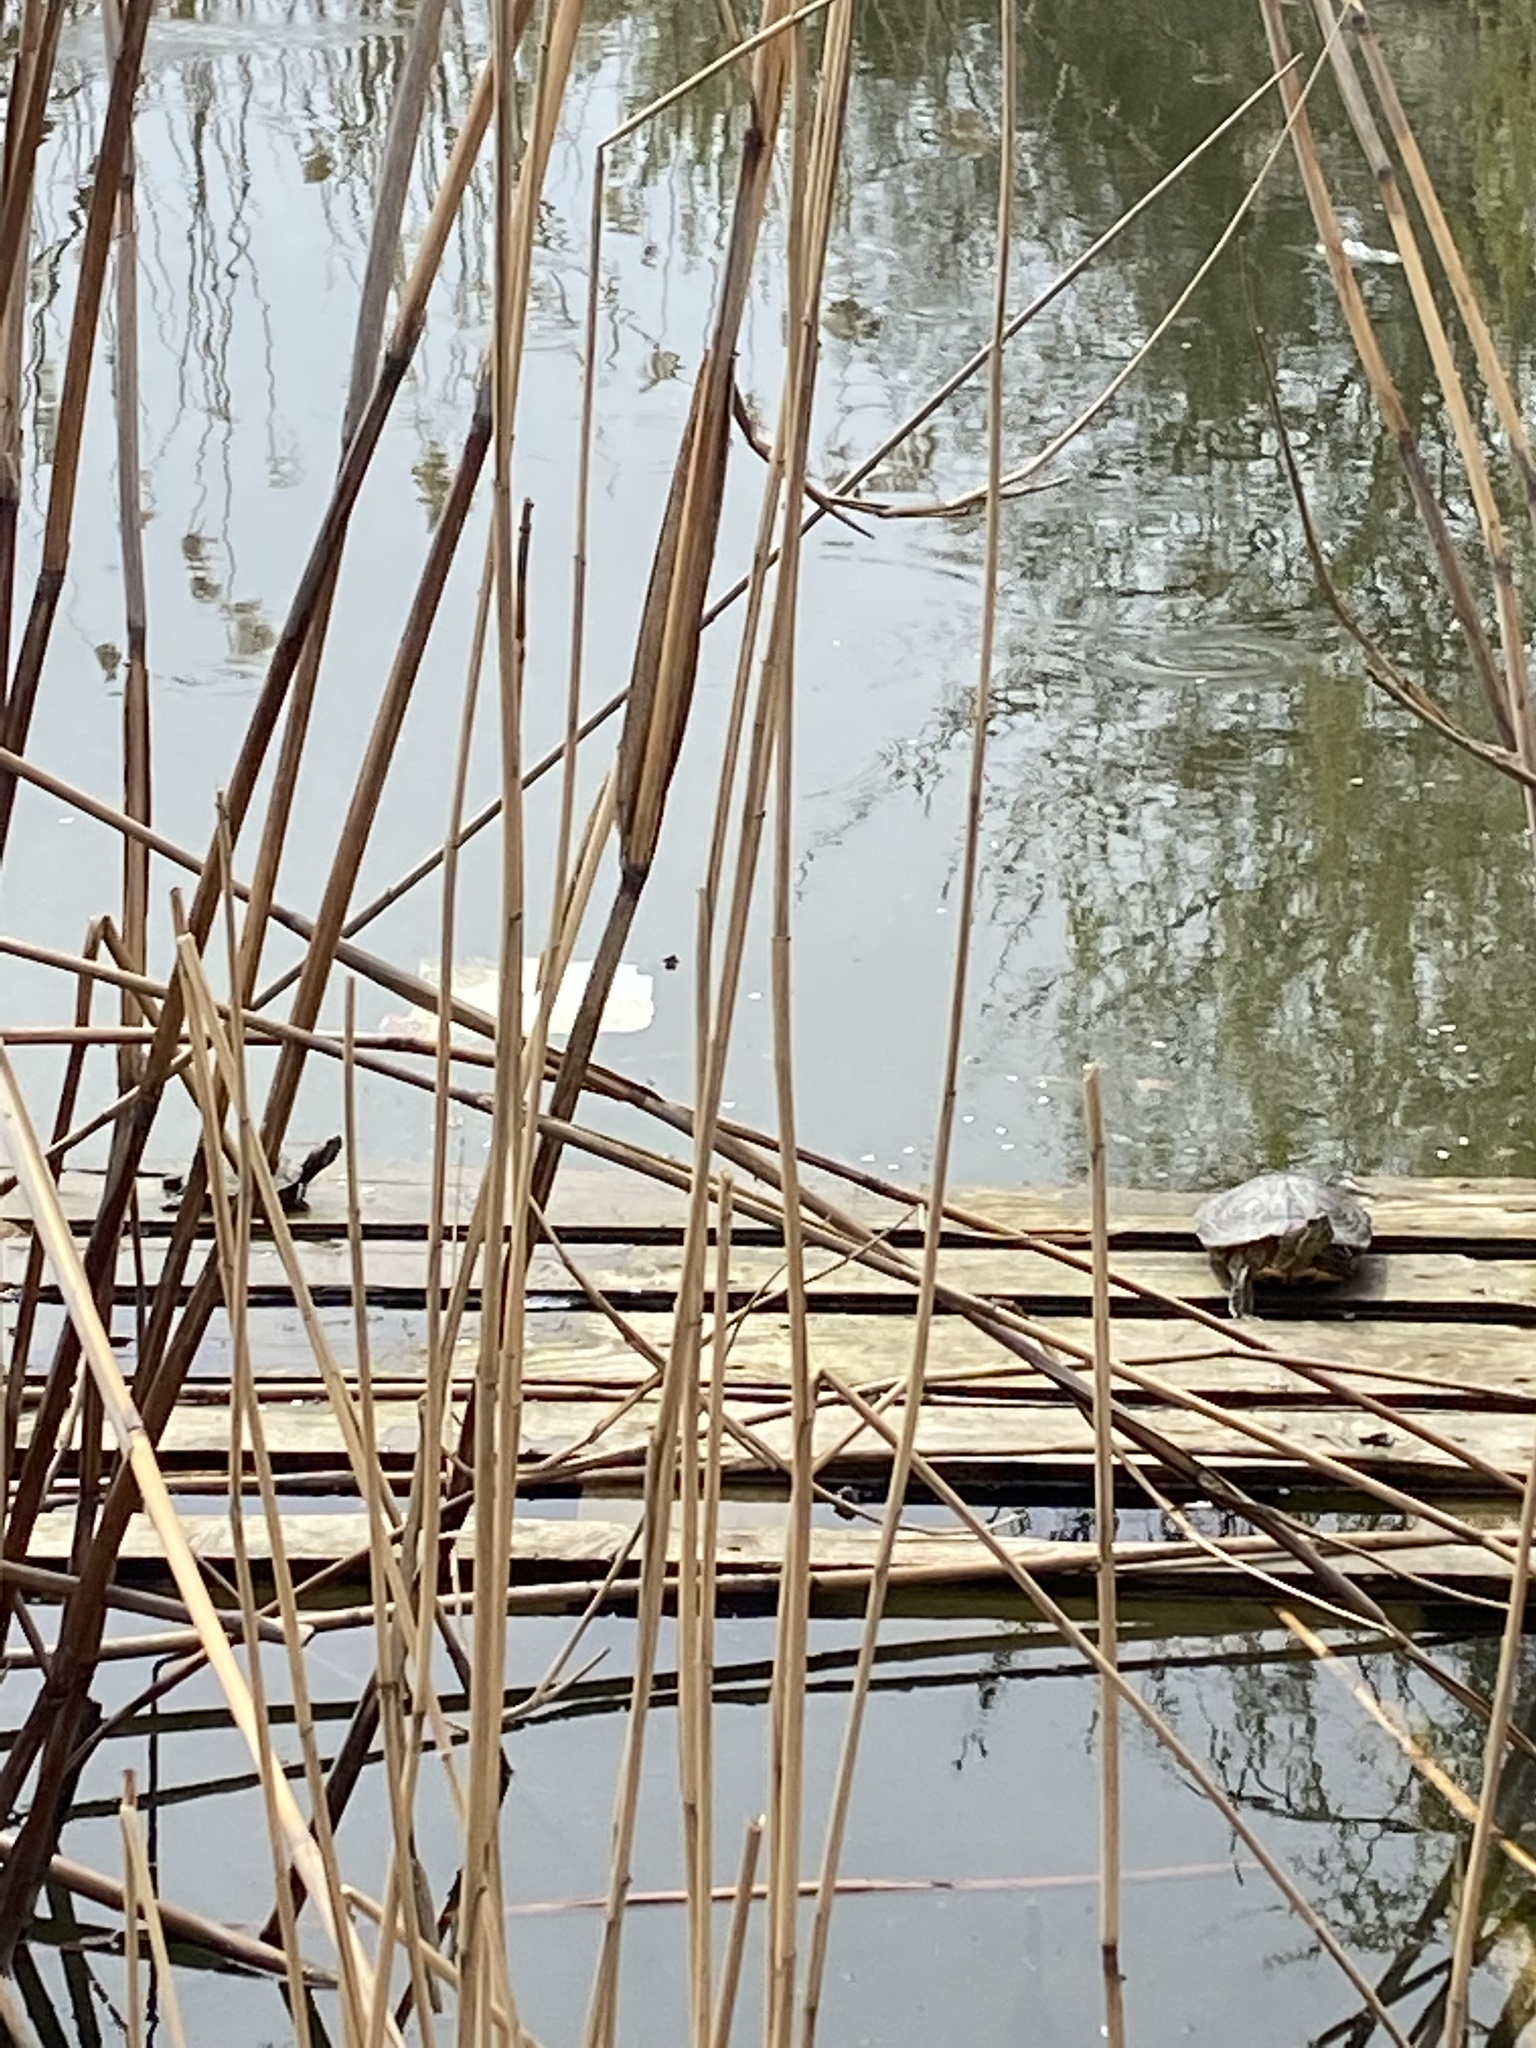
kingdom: Animalia
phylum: Chordata
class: Testudines
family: Emydidae
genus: Trachemys
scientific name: Trachemys scripta
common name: Slider
